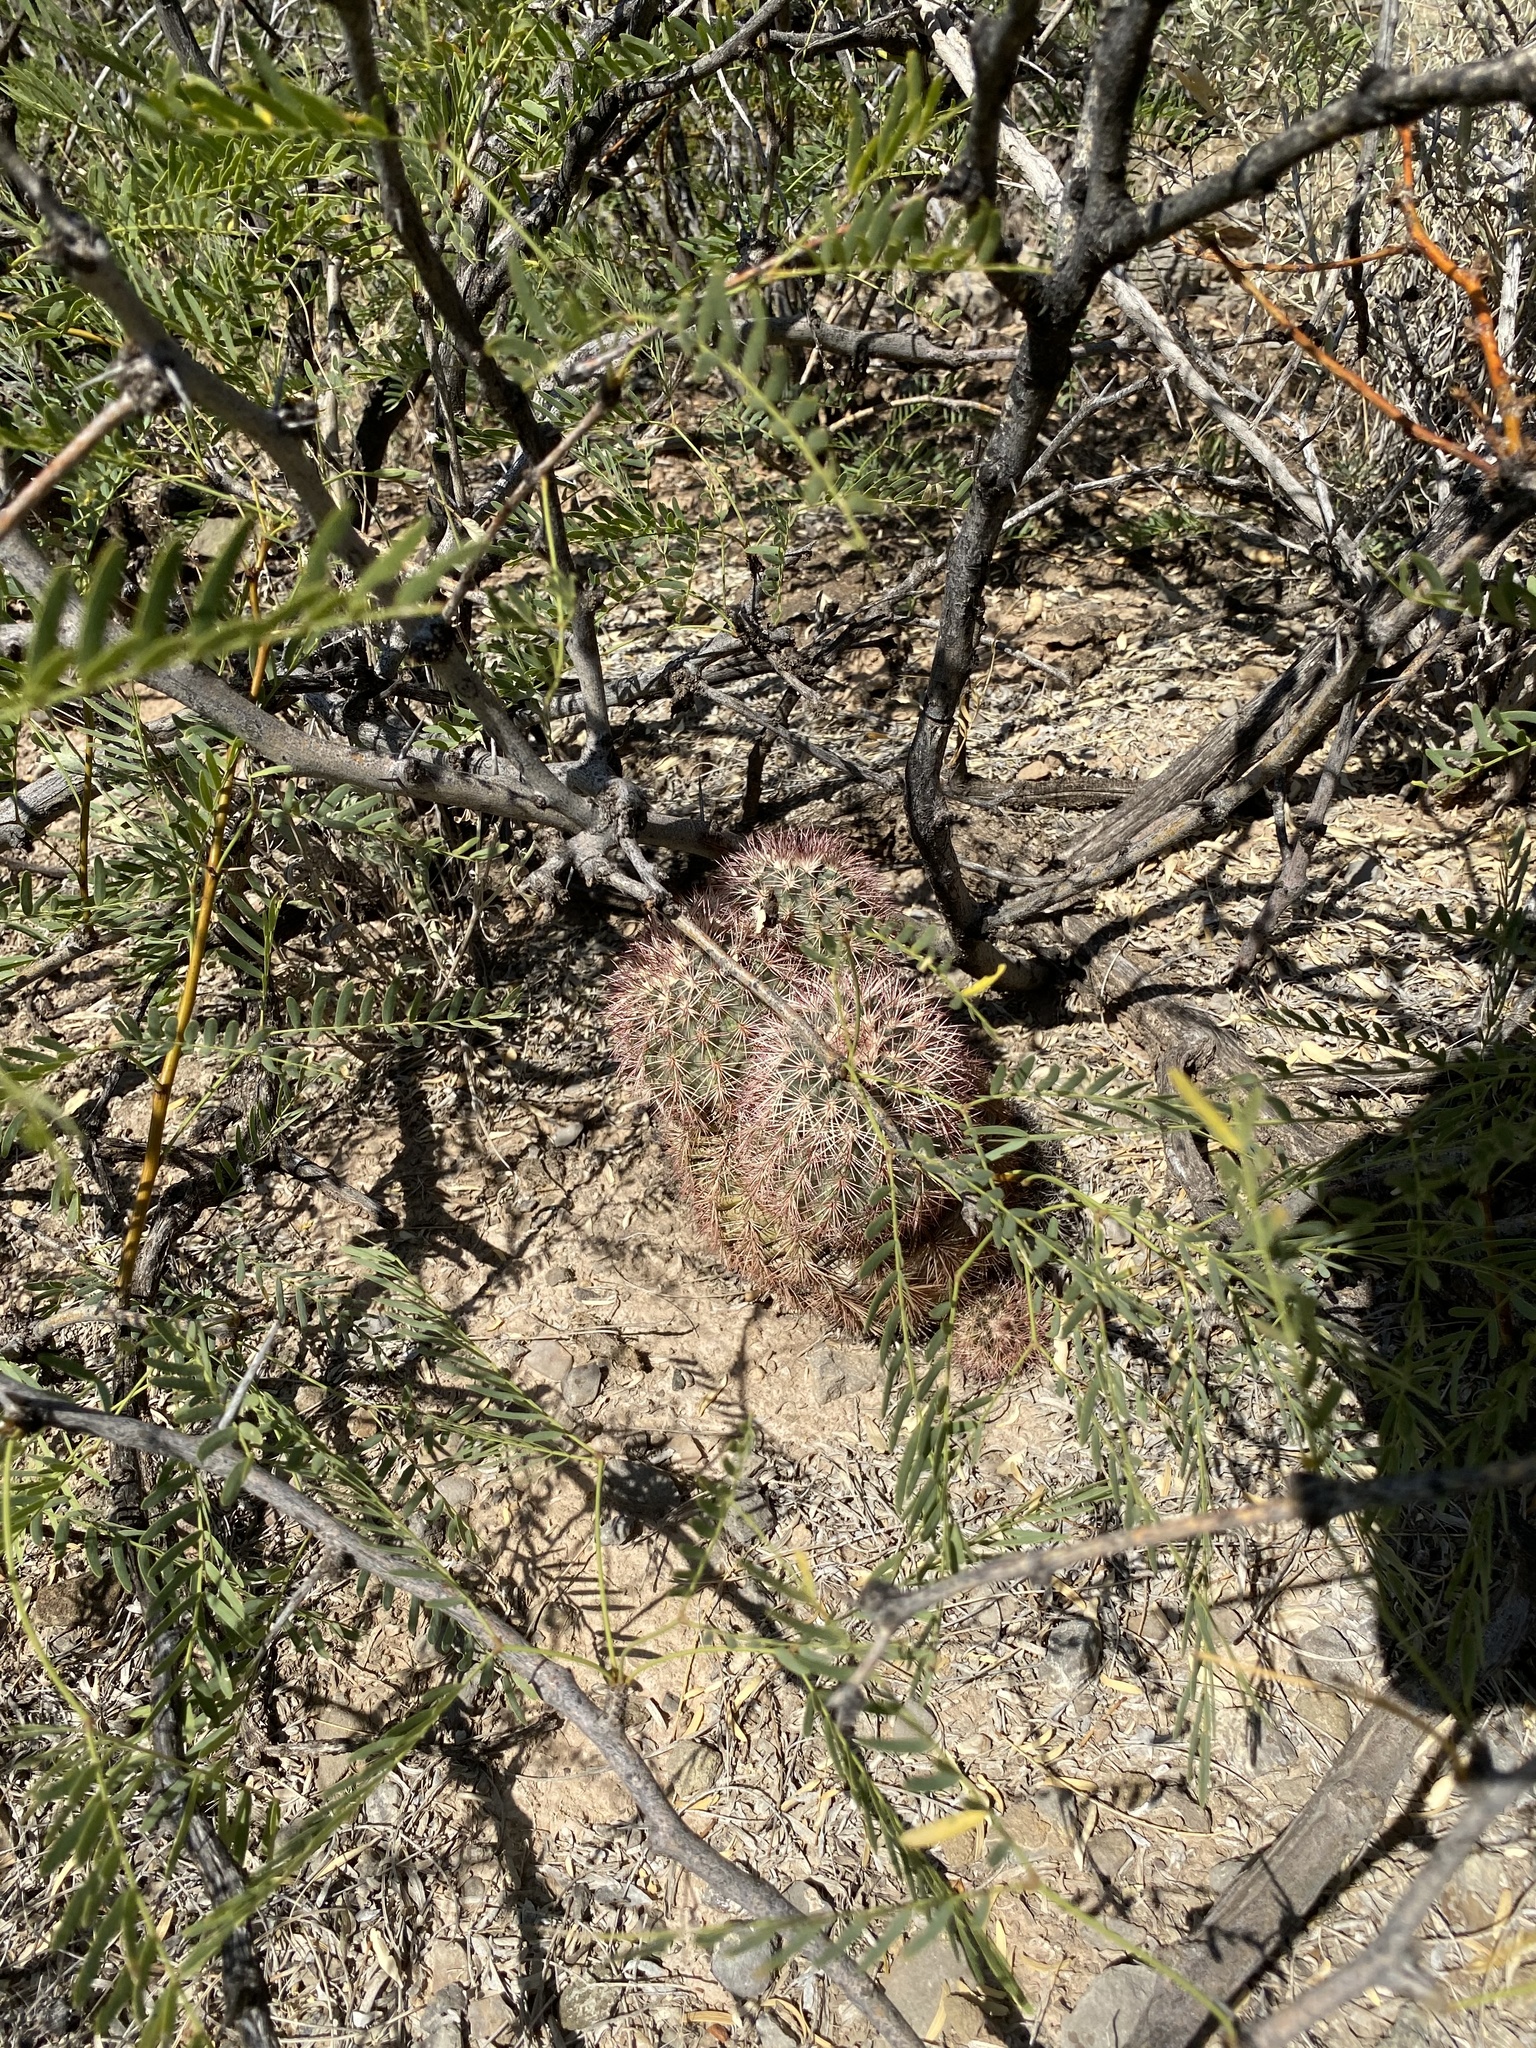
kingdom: Plantae
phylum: Tracheophyta
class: Magnoliopsida
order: Caryophyllales
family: Cactaceae
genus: Echinocereus
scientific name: Echinocereus dasyacanthus
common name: Spiny hedgehog cactus
